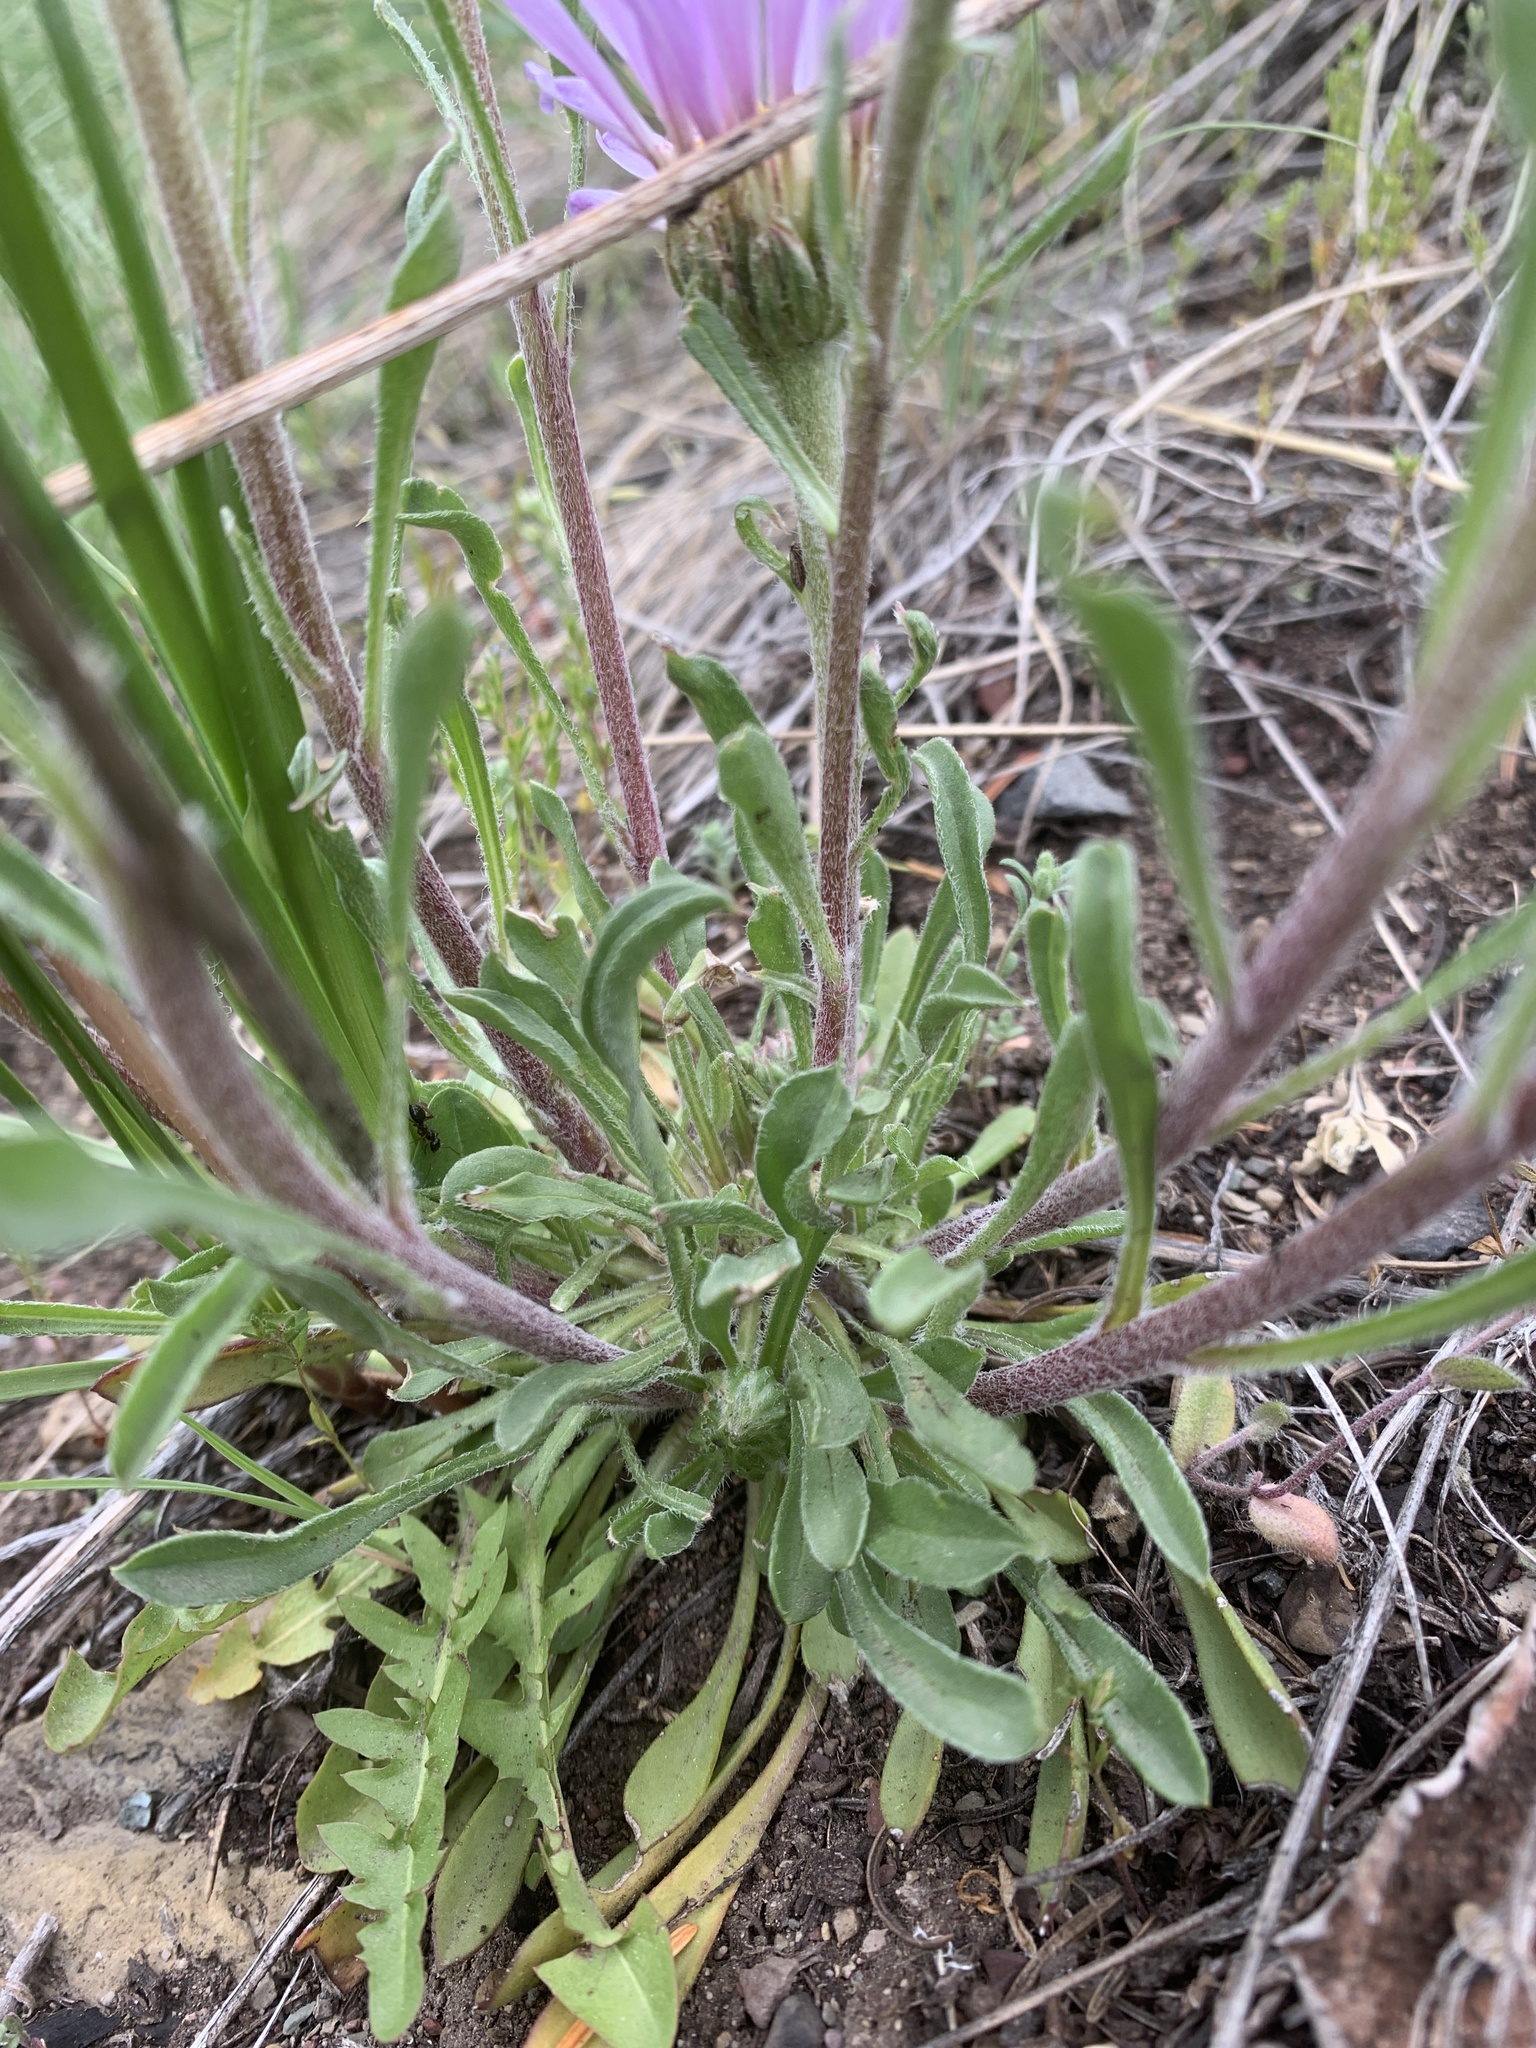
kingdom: Plantae
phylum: Tracheophyta
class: Magnoliopsida
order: Asterales
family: Asteraceae
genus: Townsendia
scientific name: Townsendia parryi
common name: Parry's townsend daisy
